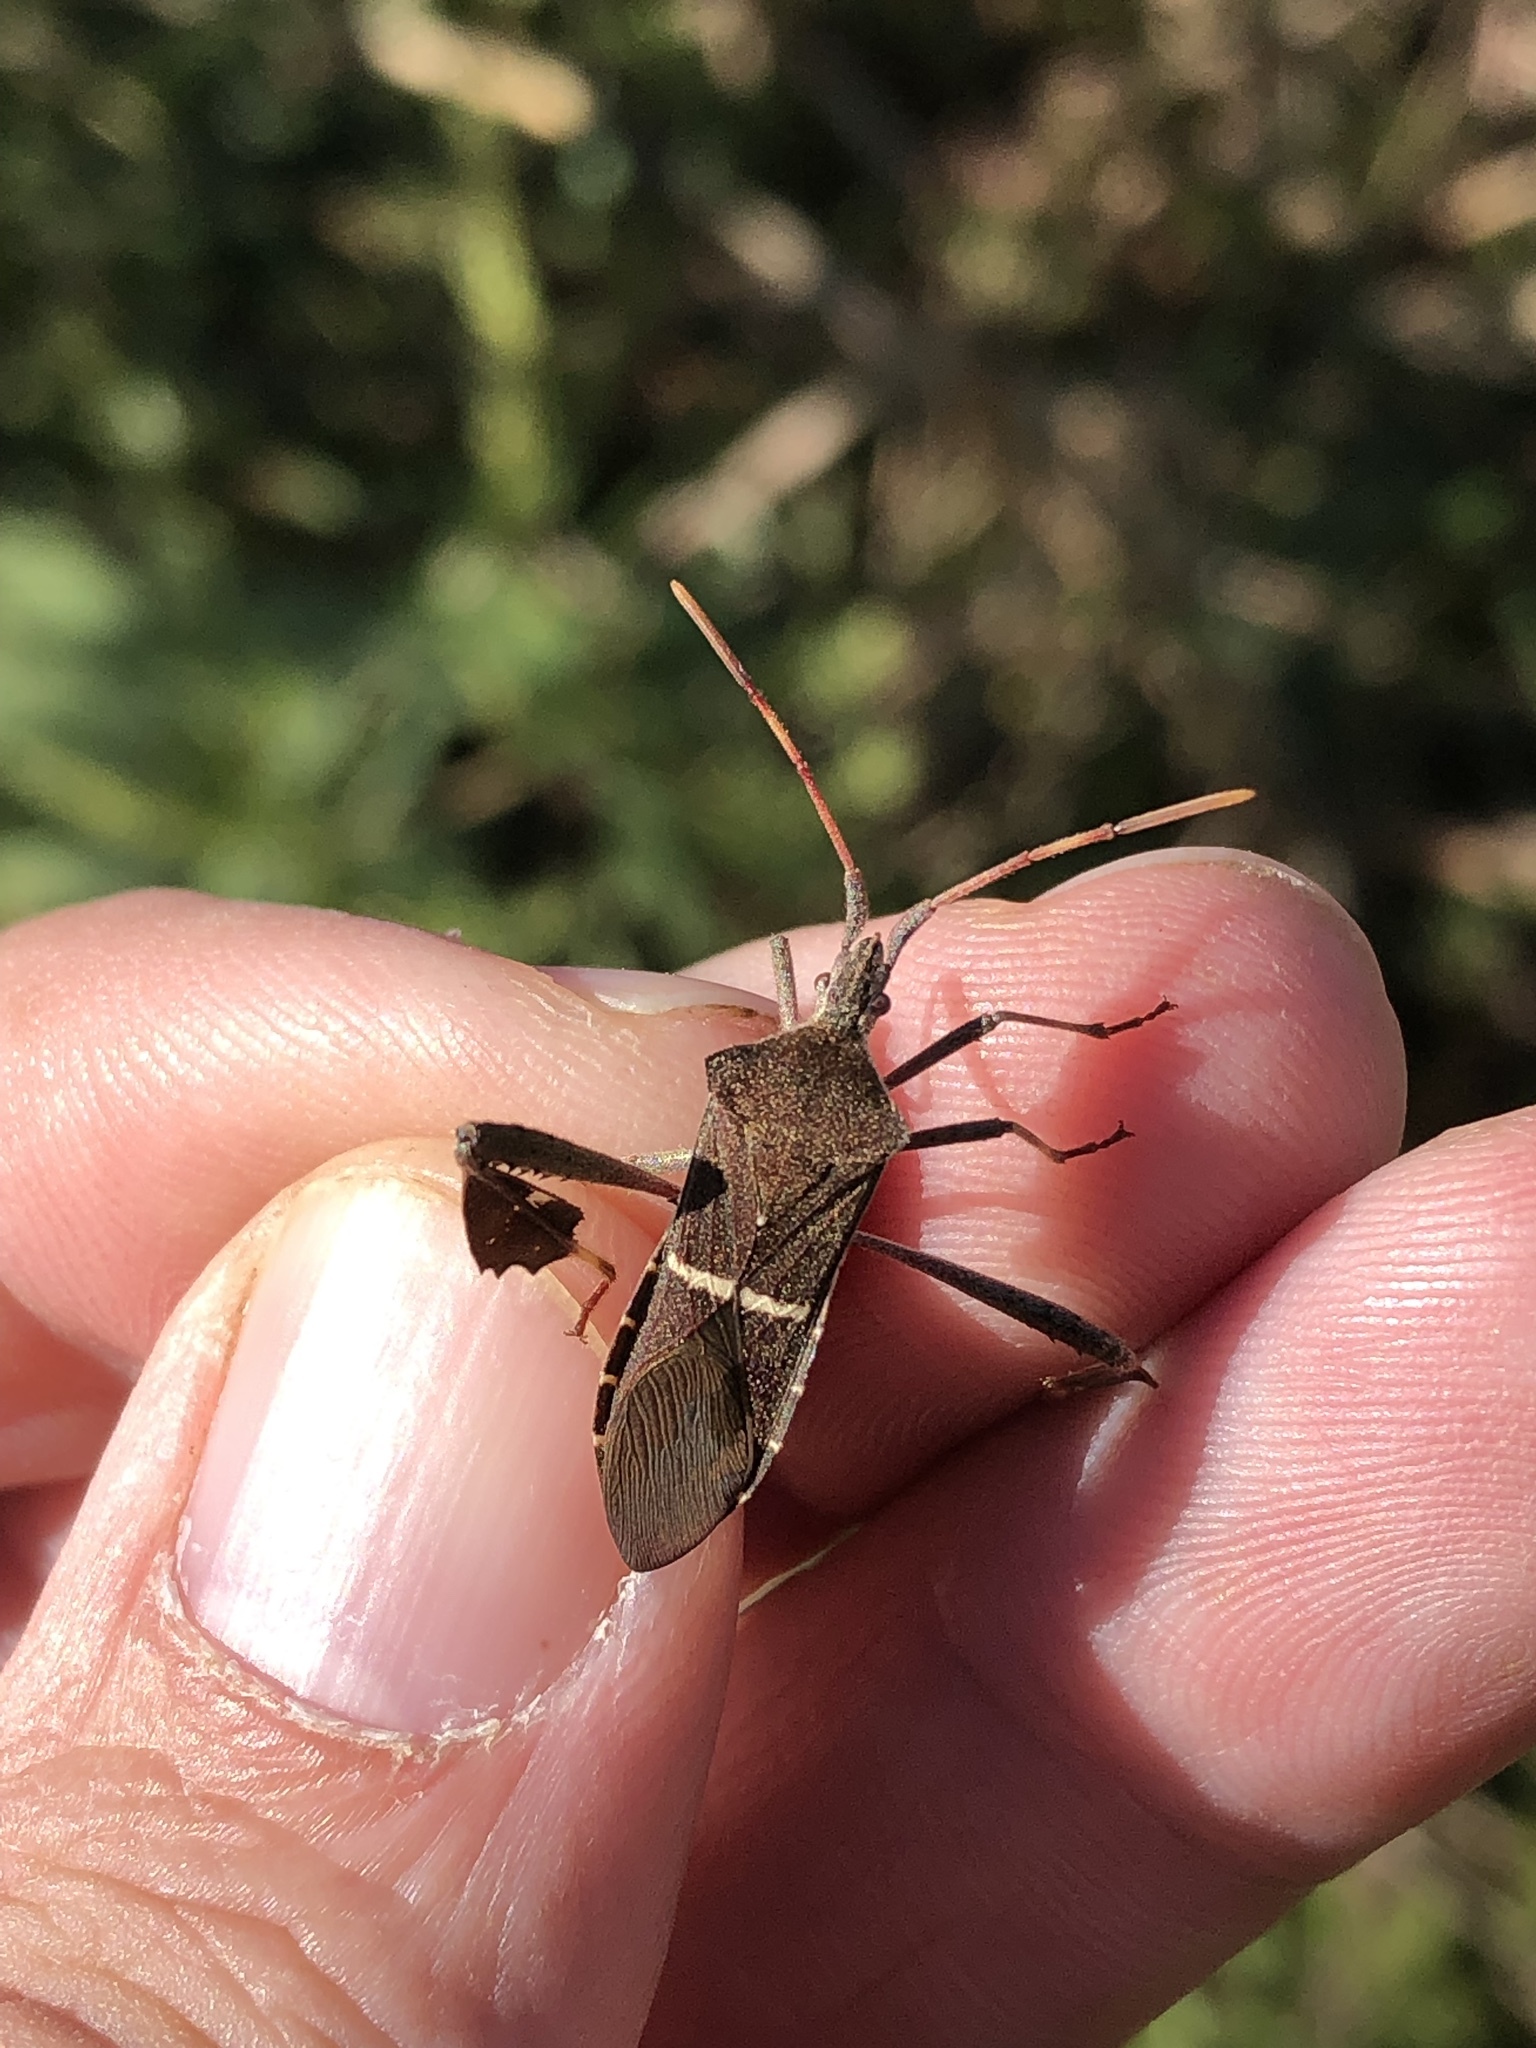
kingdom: Animalia
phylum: Arthropoda
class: Insecta
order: Hemiptera
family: Coreidae
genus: Leptoglossus
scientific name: Leptoglossus phyllopus
